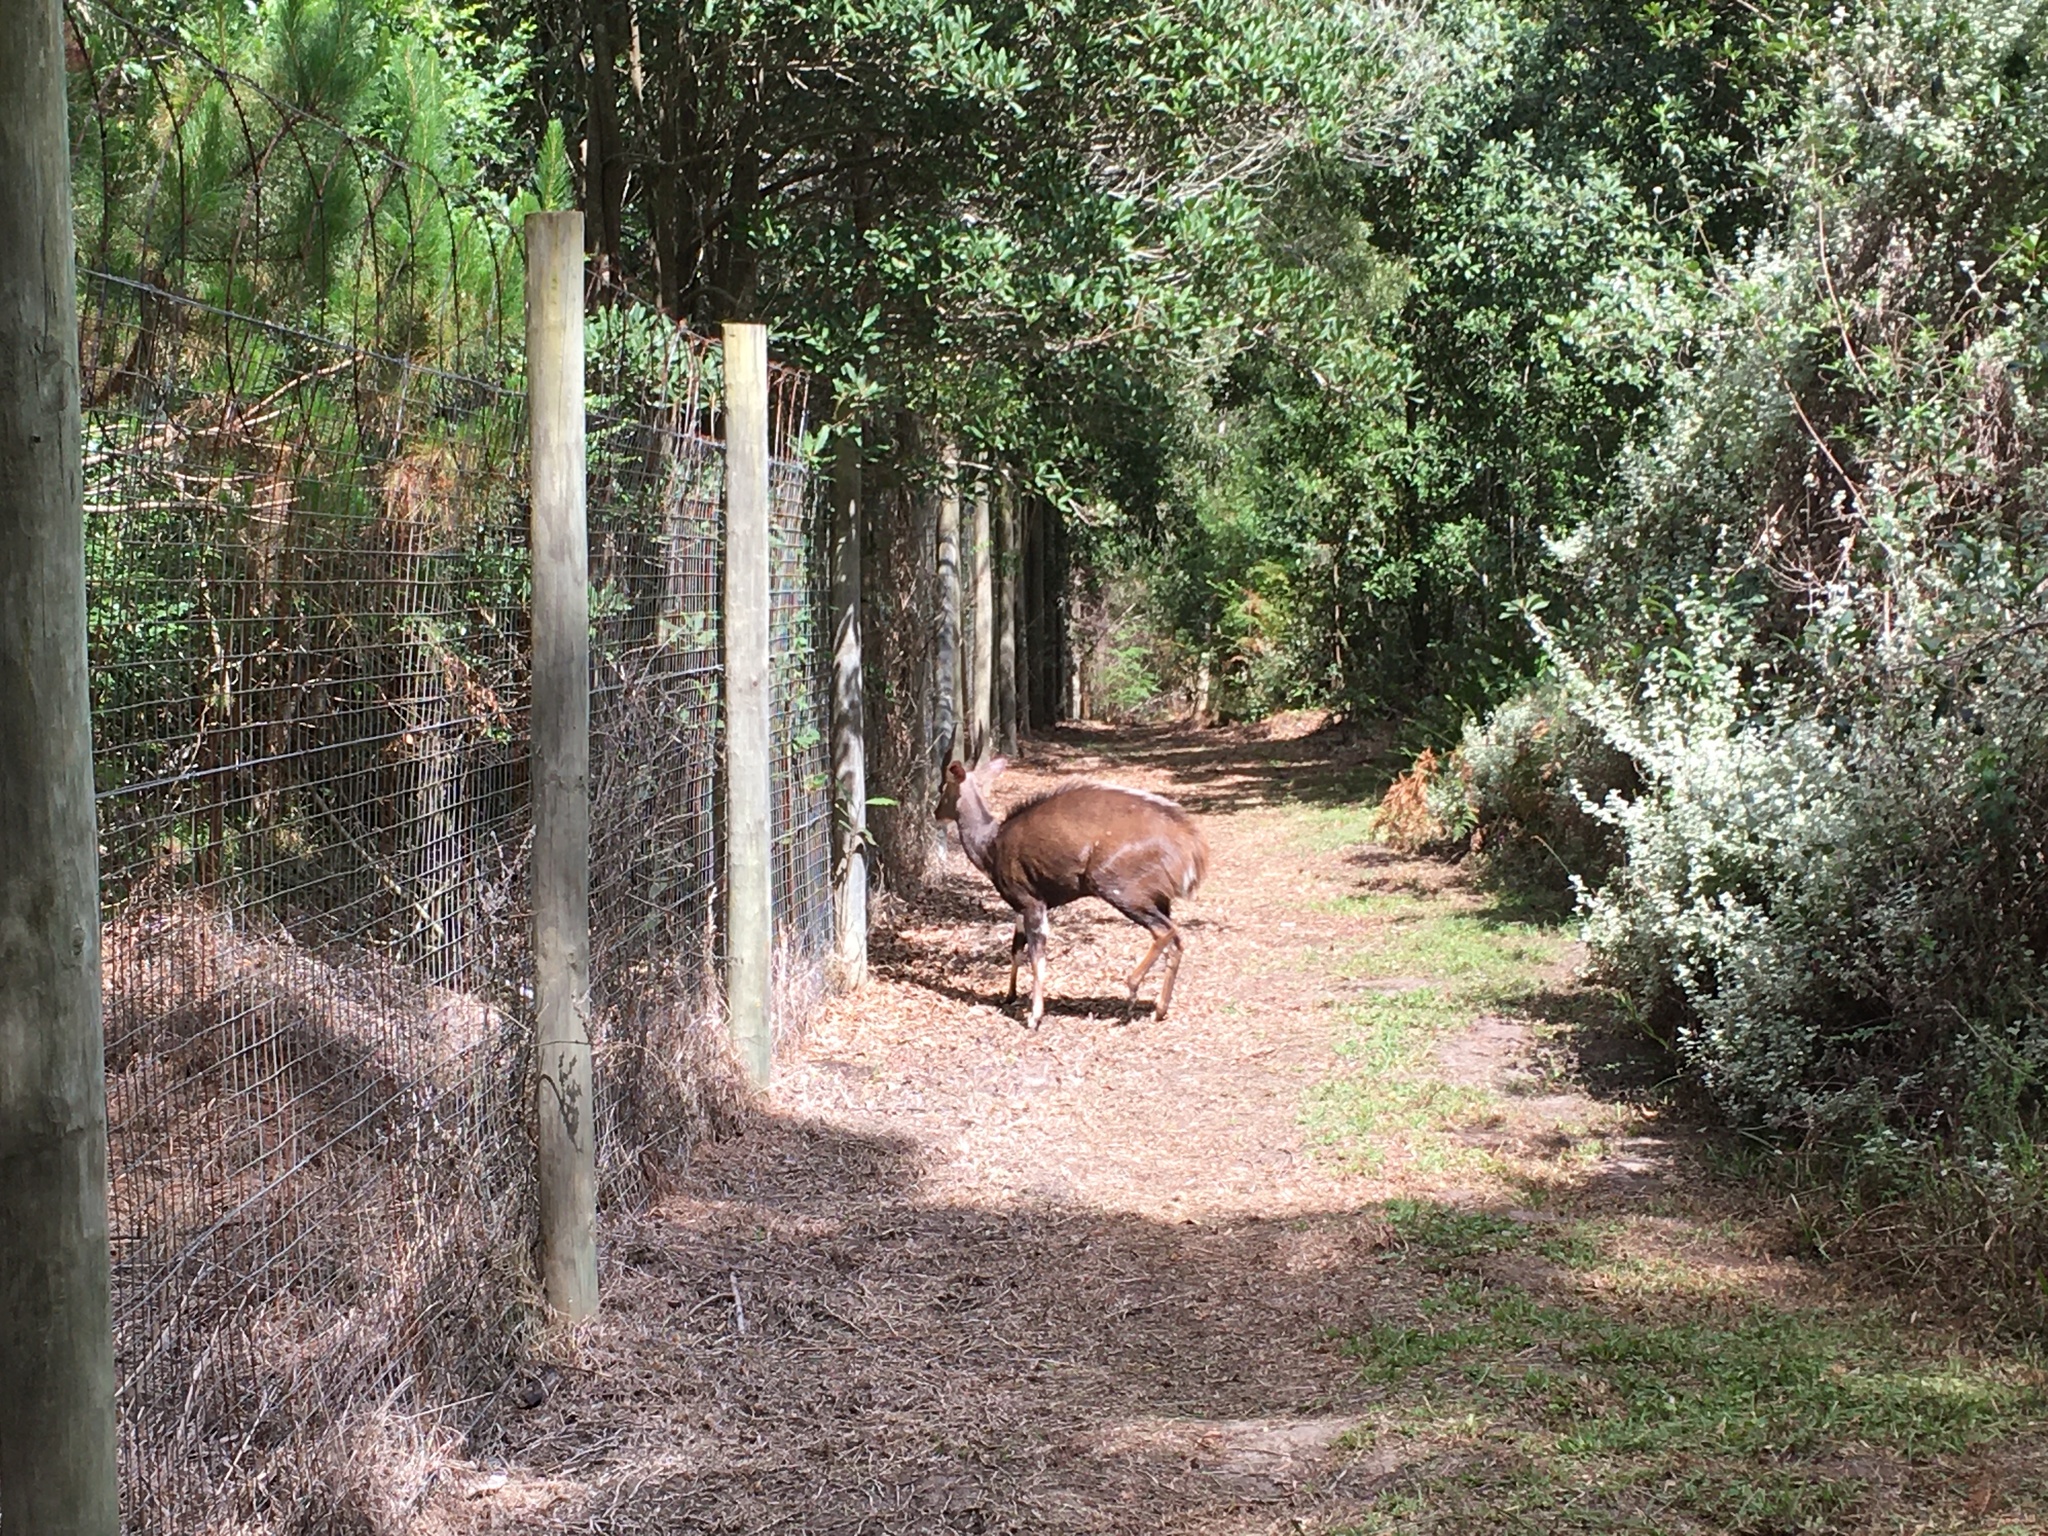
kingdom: Animalia
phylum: Chordata
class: Mammalia
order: Artiodactyla
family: Bovidae
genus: Tragelaphus
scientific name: Tragelaphus scriptus
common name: Bushbuck
